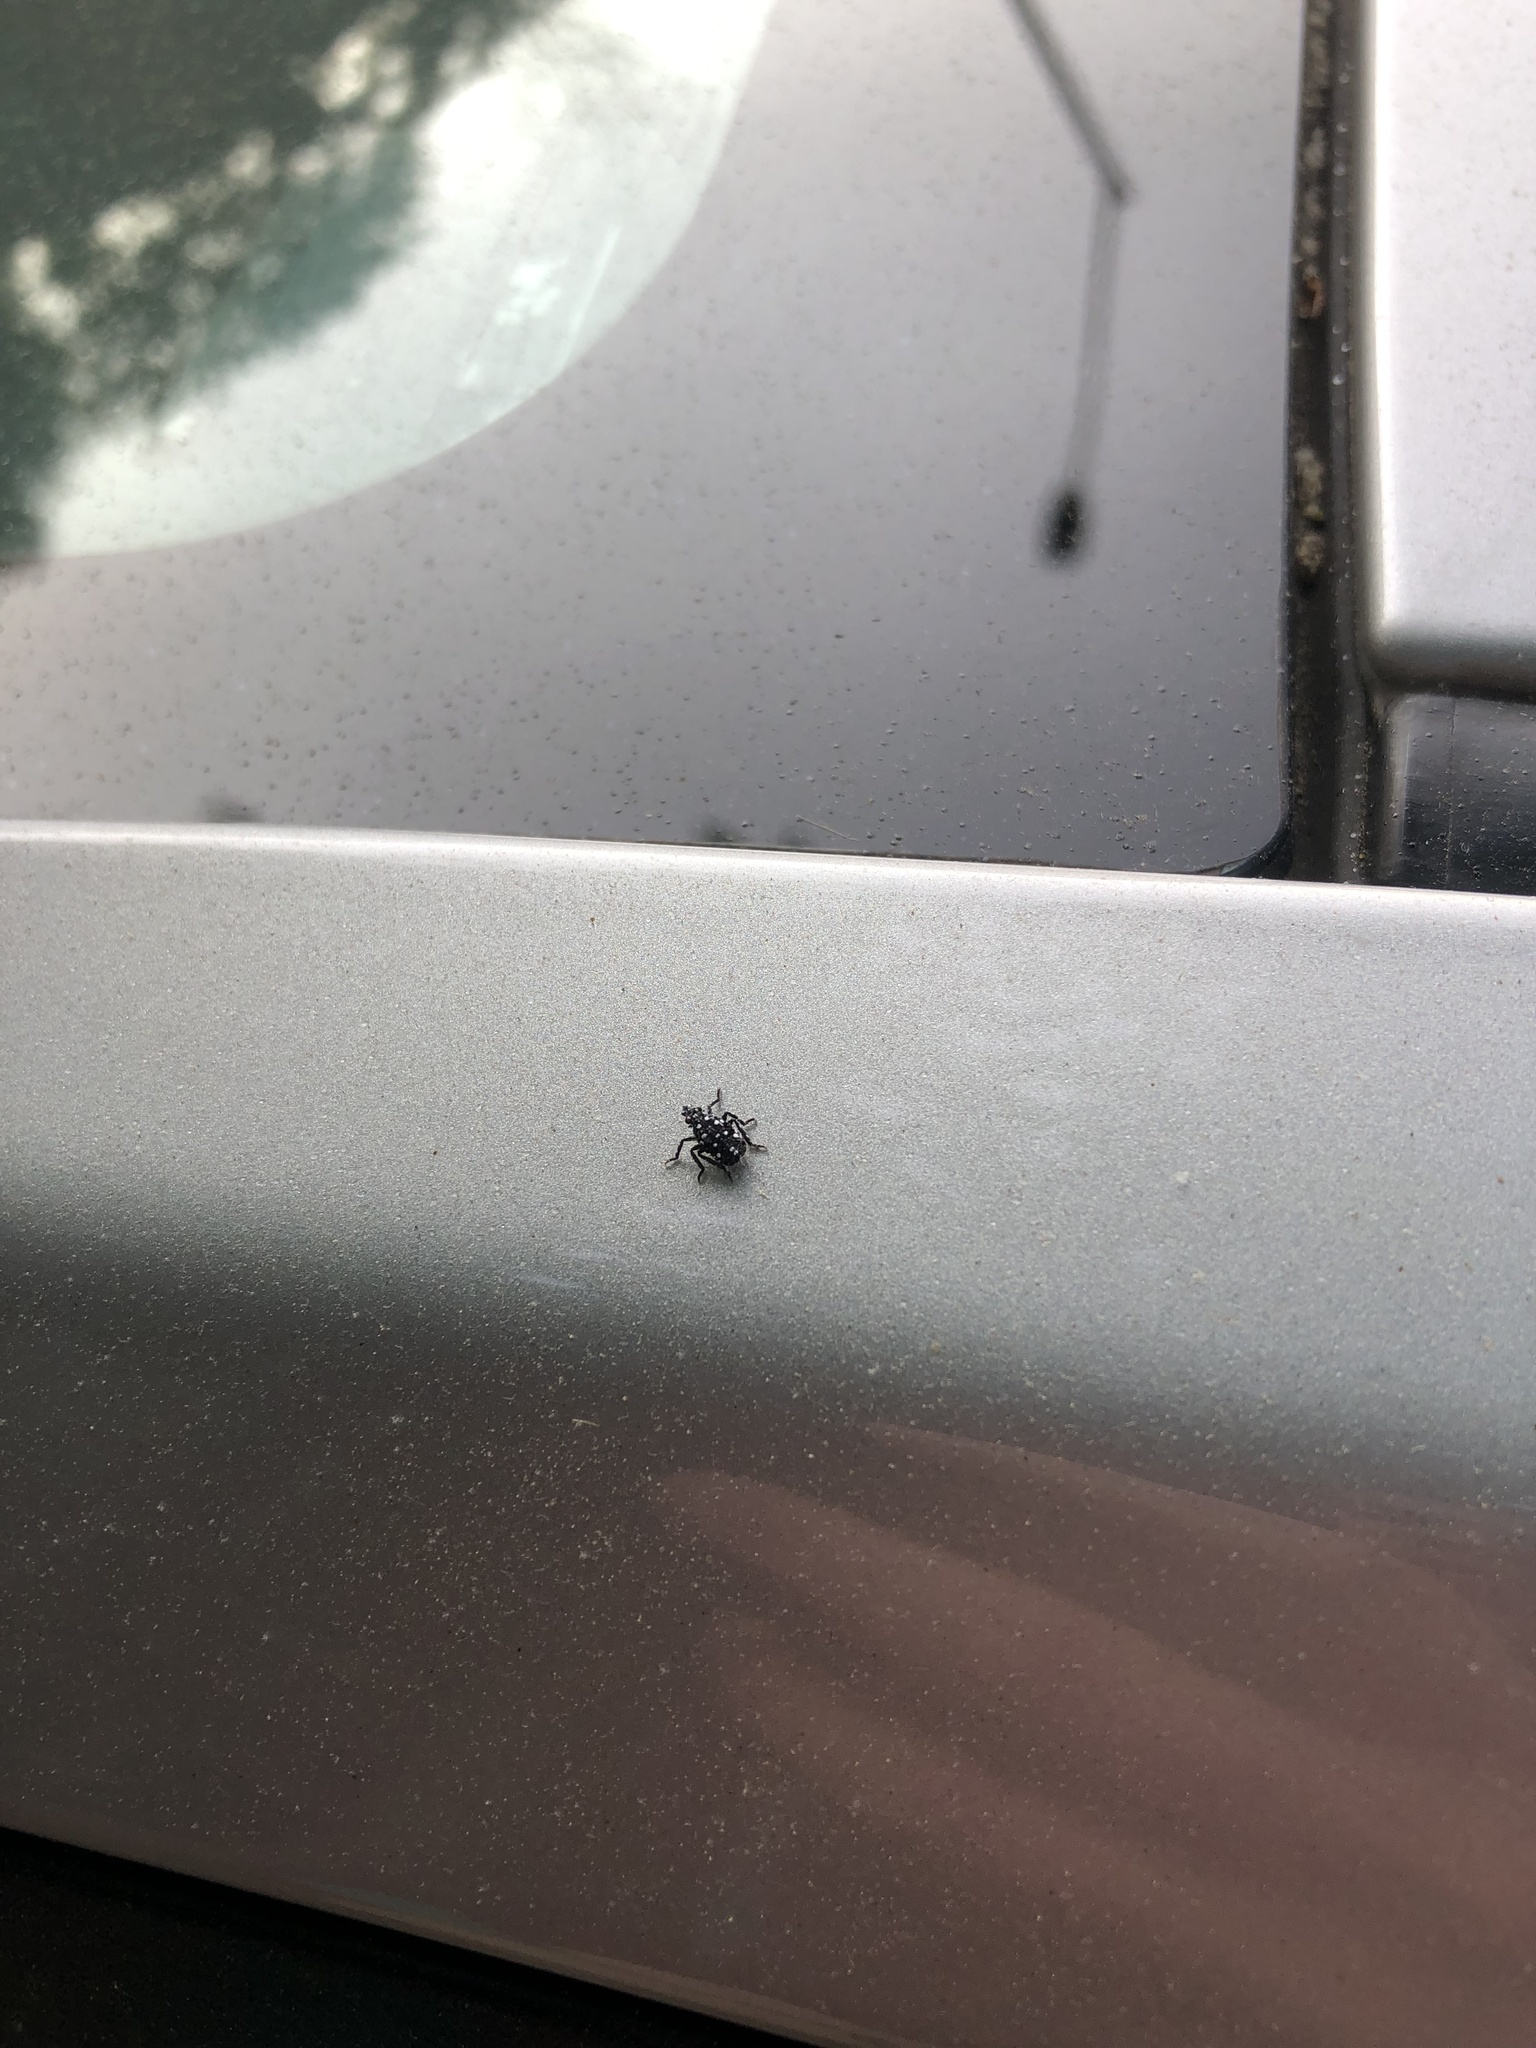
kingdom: Animalia
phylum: Arthropoda
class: Insecta
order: Hemiptera
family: Fulgoridae
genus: Lycorma
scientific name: Lycorma delicatula
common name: Spotted lanternfly
